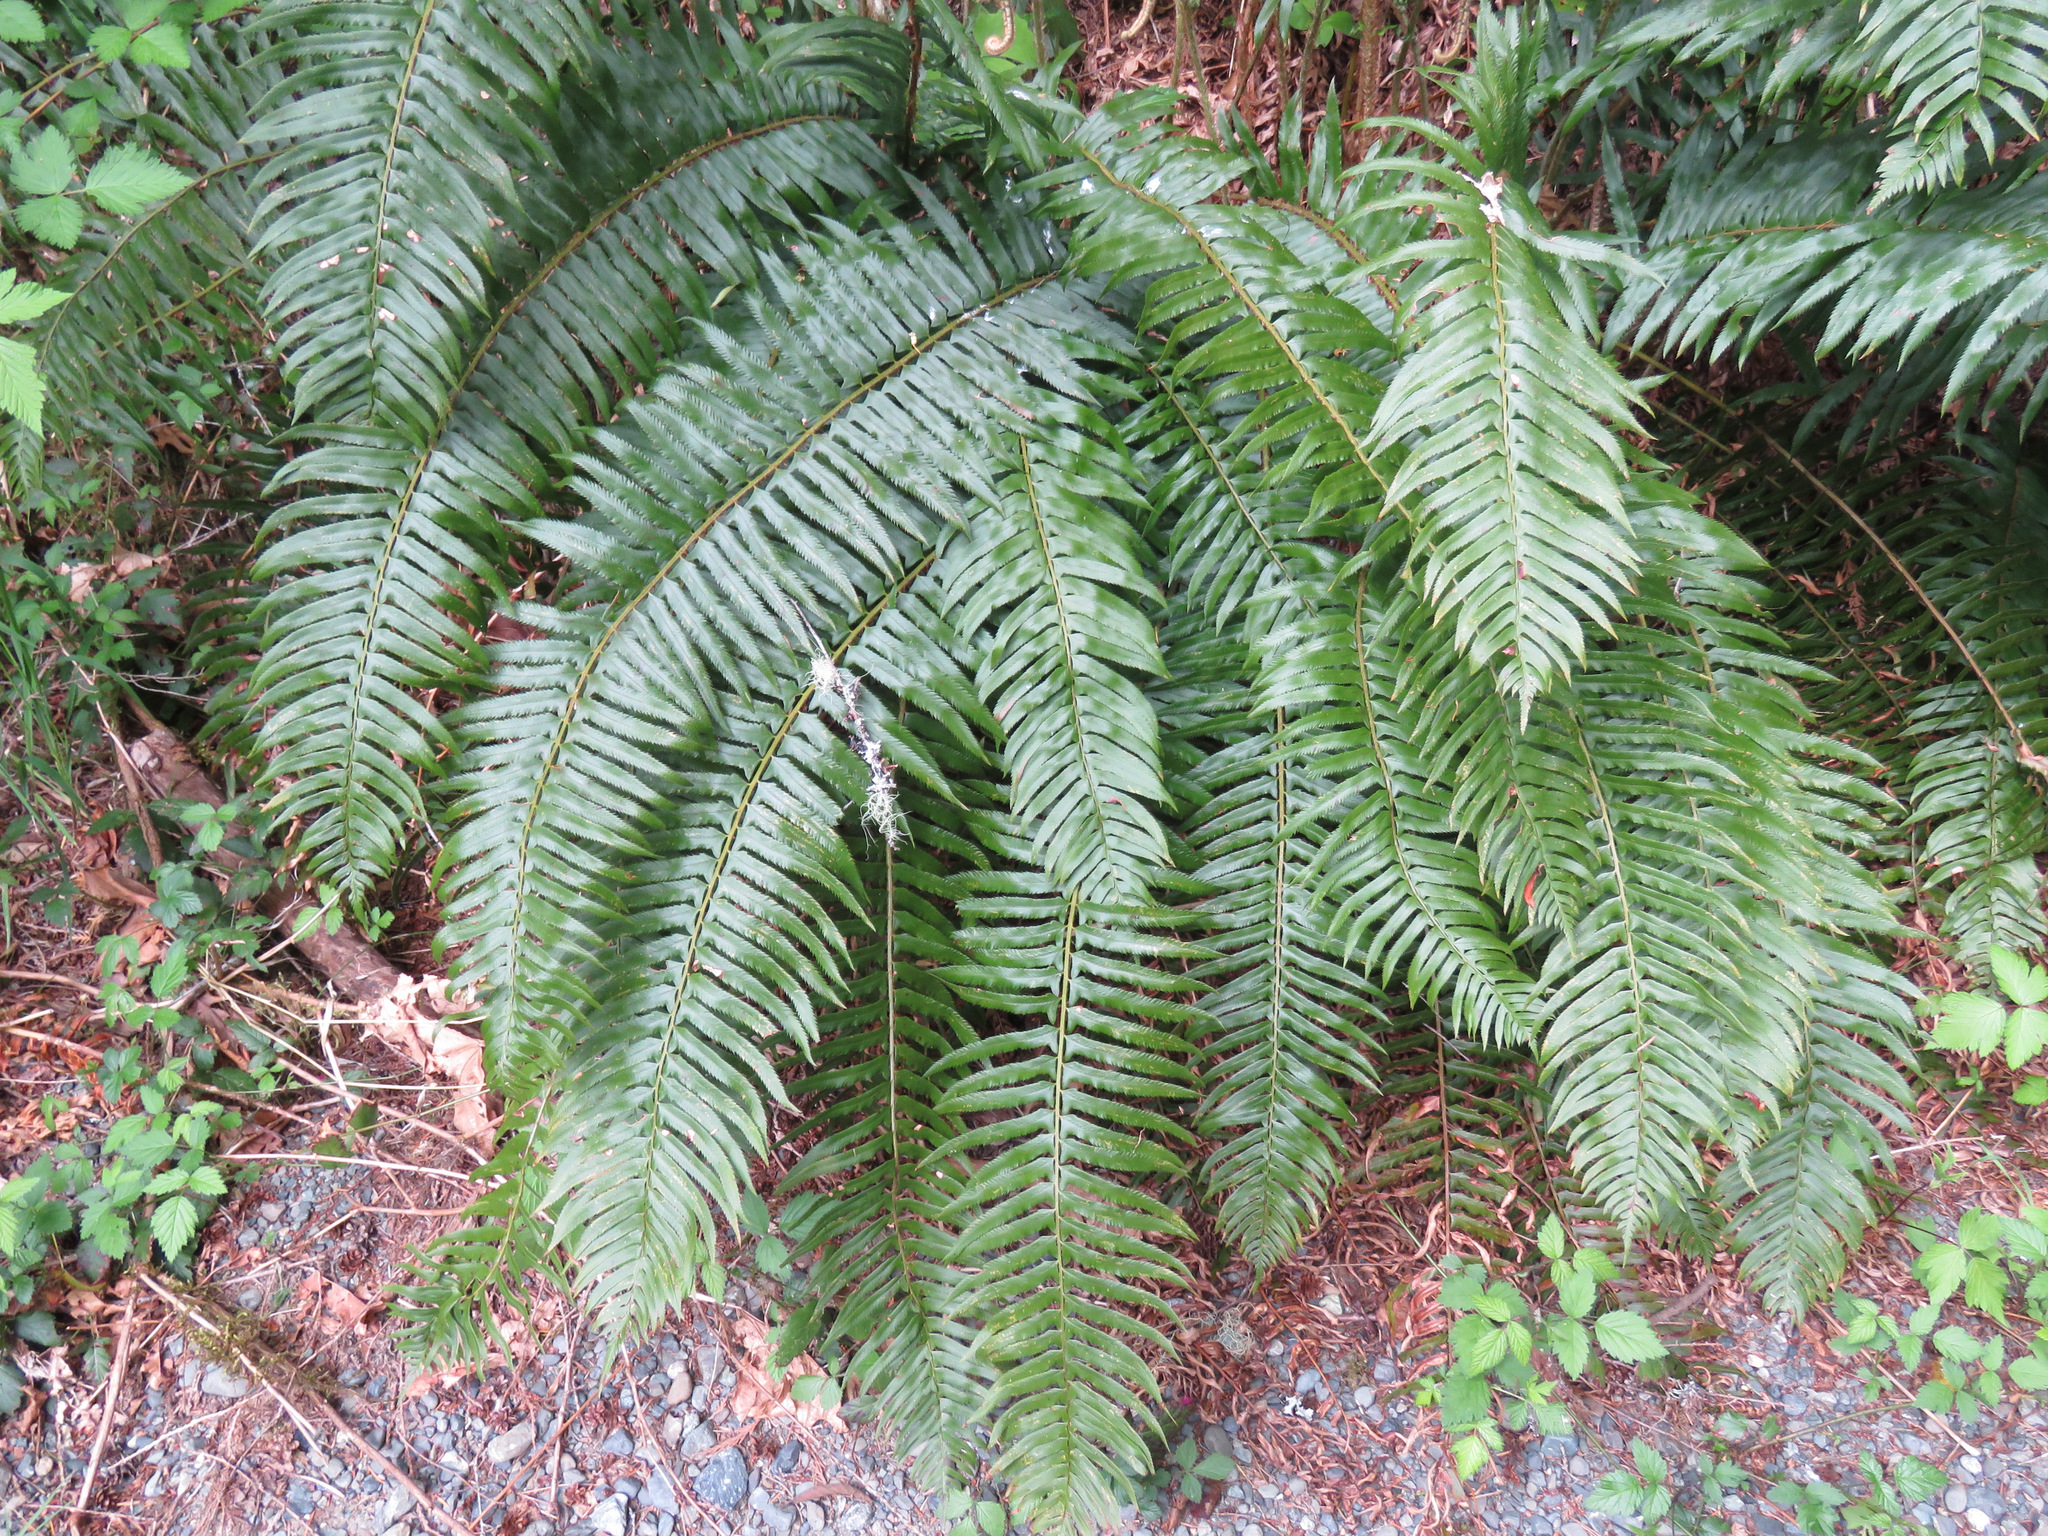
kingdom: Plantae
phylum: Tracheophyta
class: Polypodiopsida
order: Polypodiales
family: Dryopteridaceae
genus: Polystichum
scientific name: Polystichum munitum
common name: Western sword-fern
